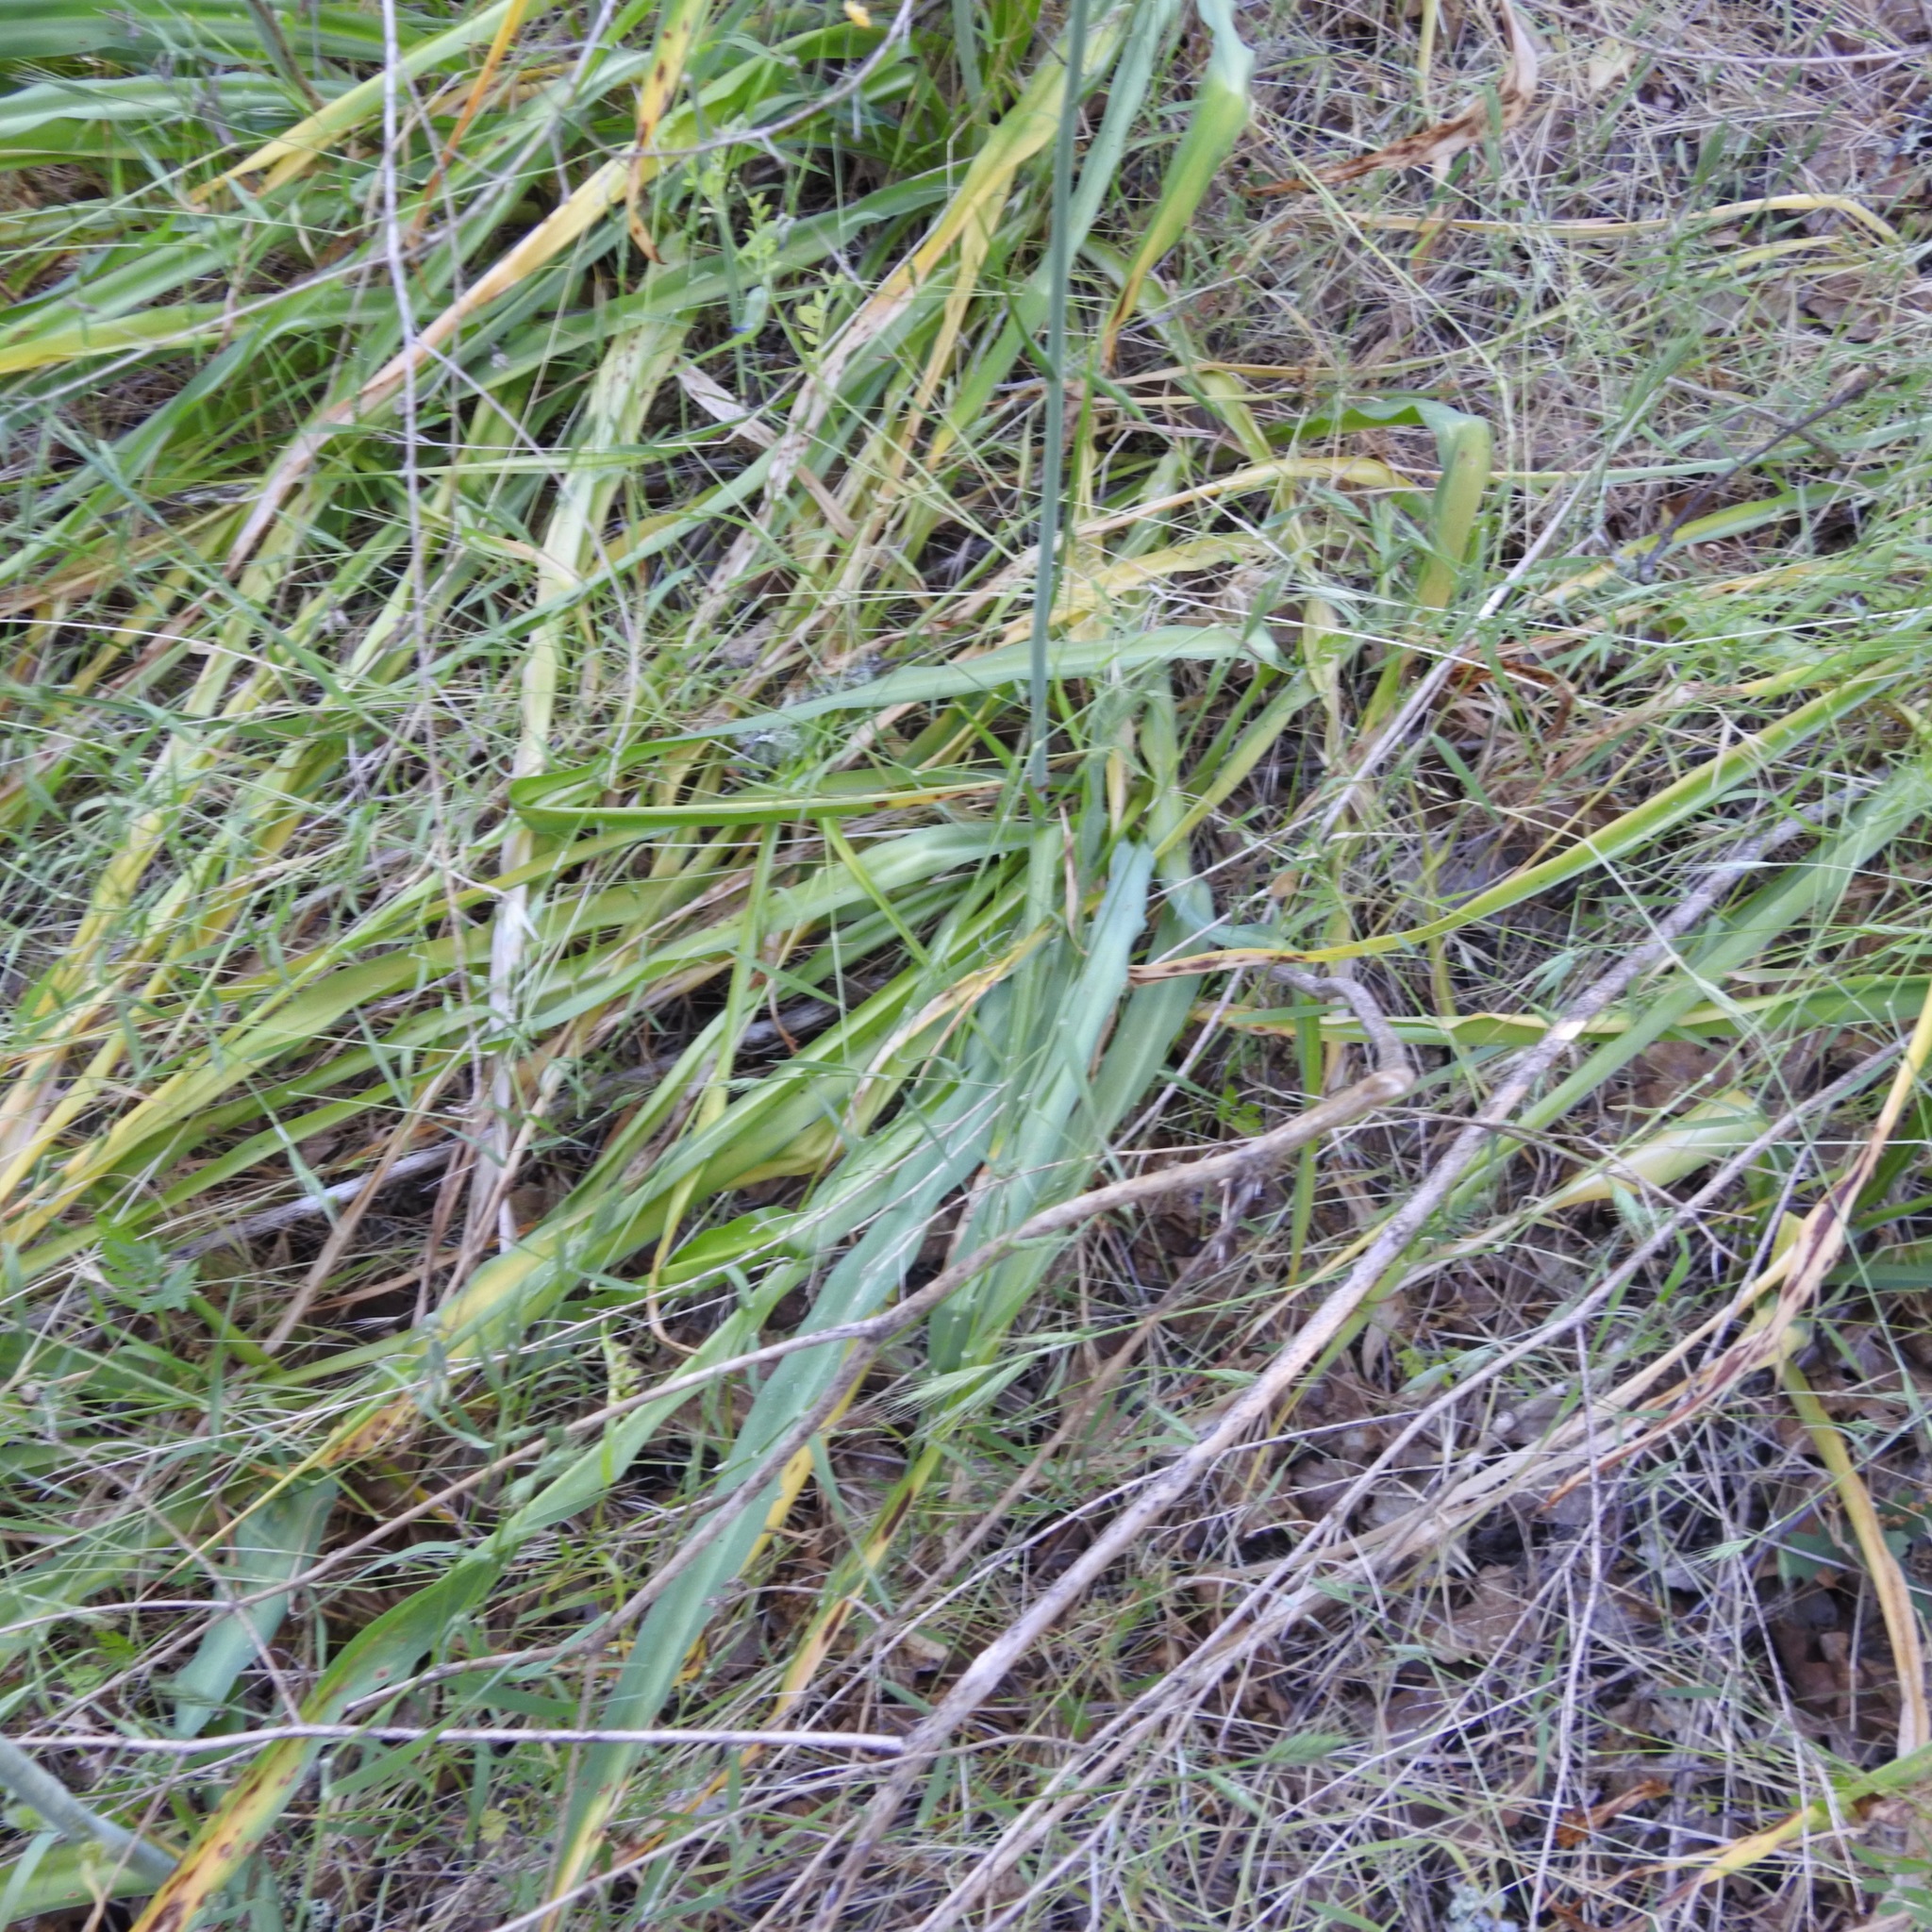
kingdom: Plantae
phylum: Tracheophyta
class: Liliopsida
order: Asparagales
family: Asparagaceae
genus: Chlorogalum
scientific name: Chlorogalum pomeridianum
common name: Amole
